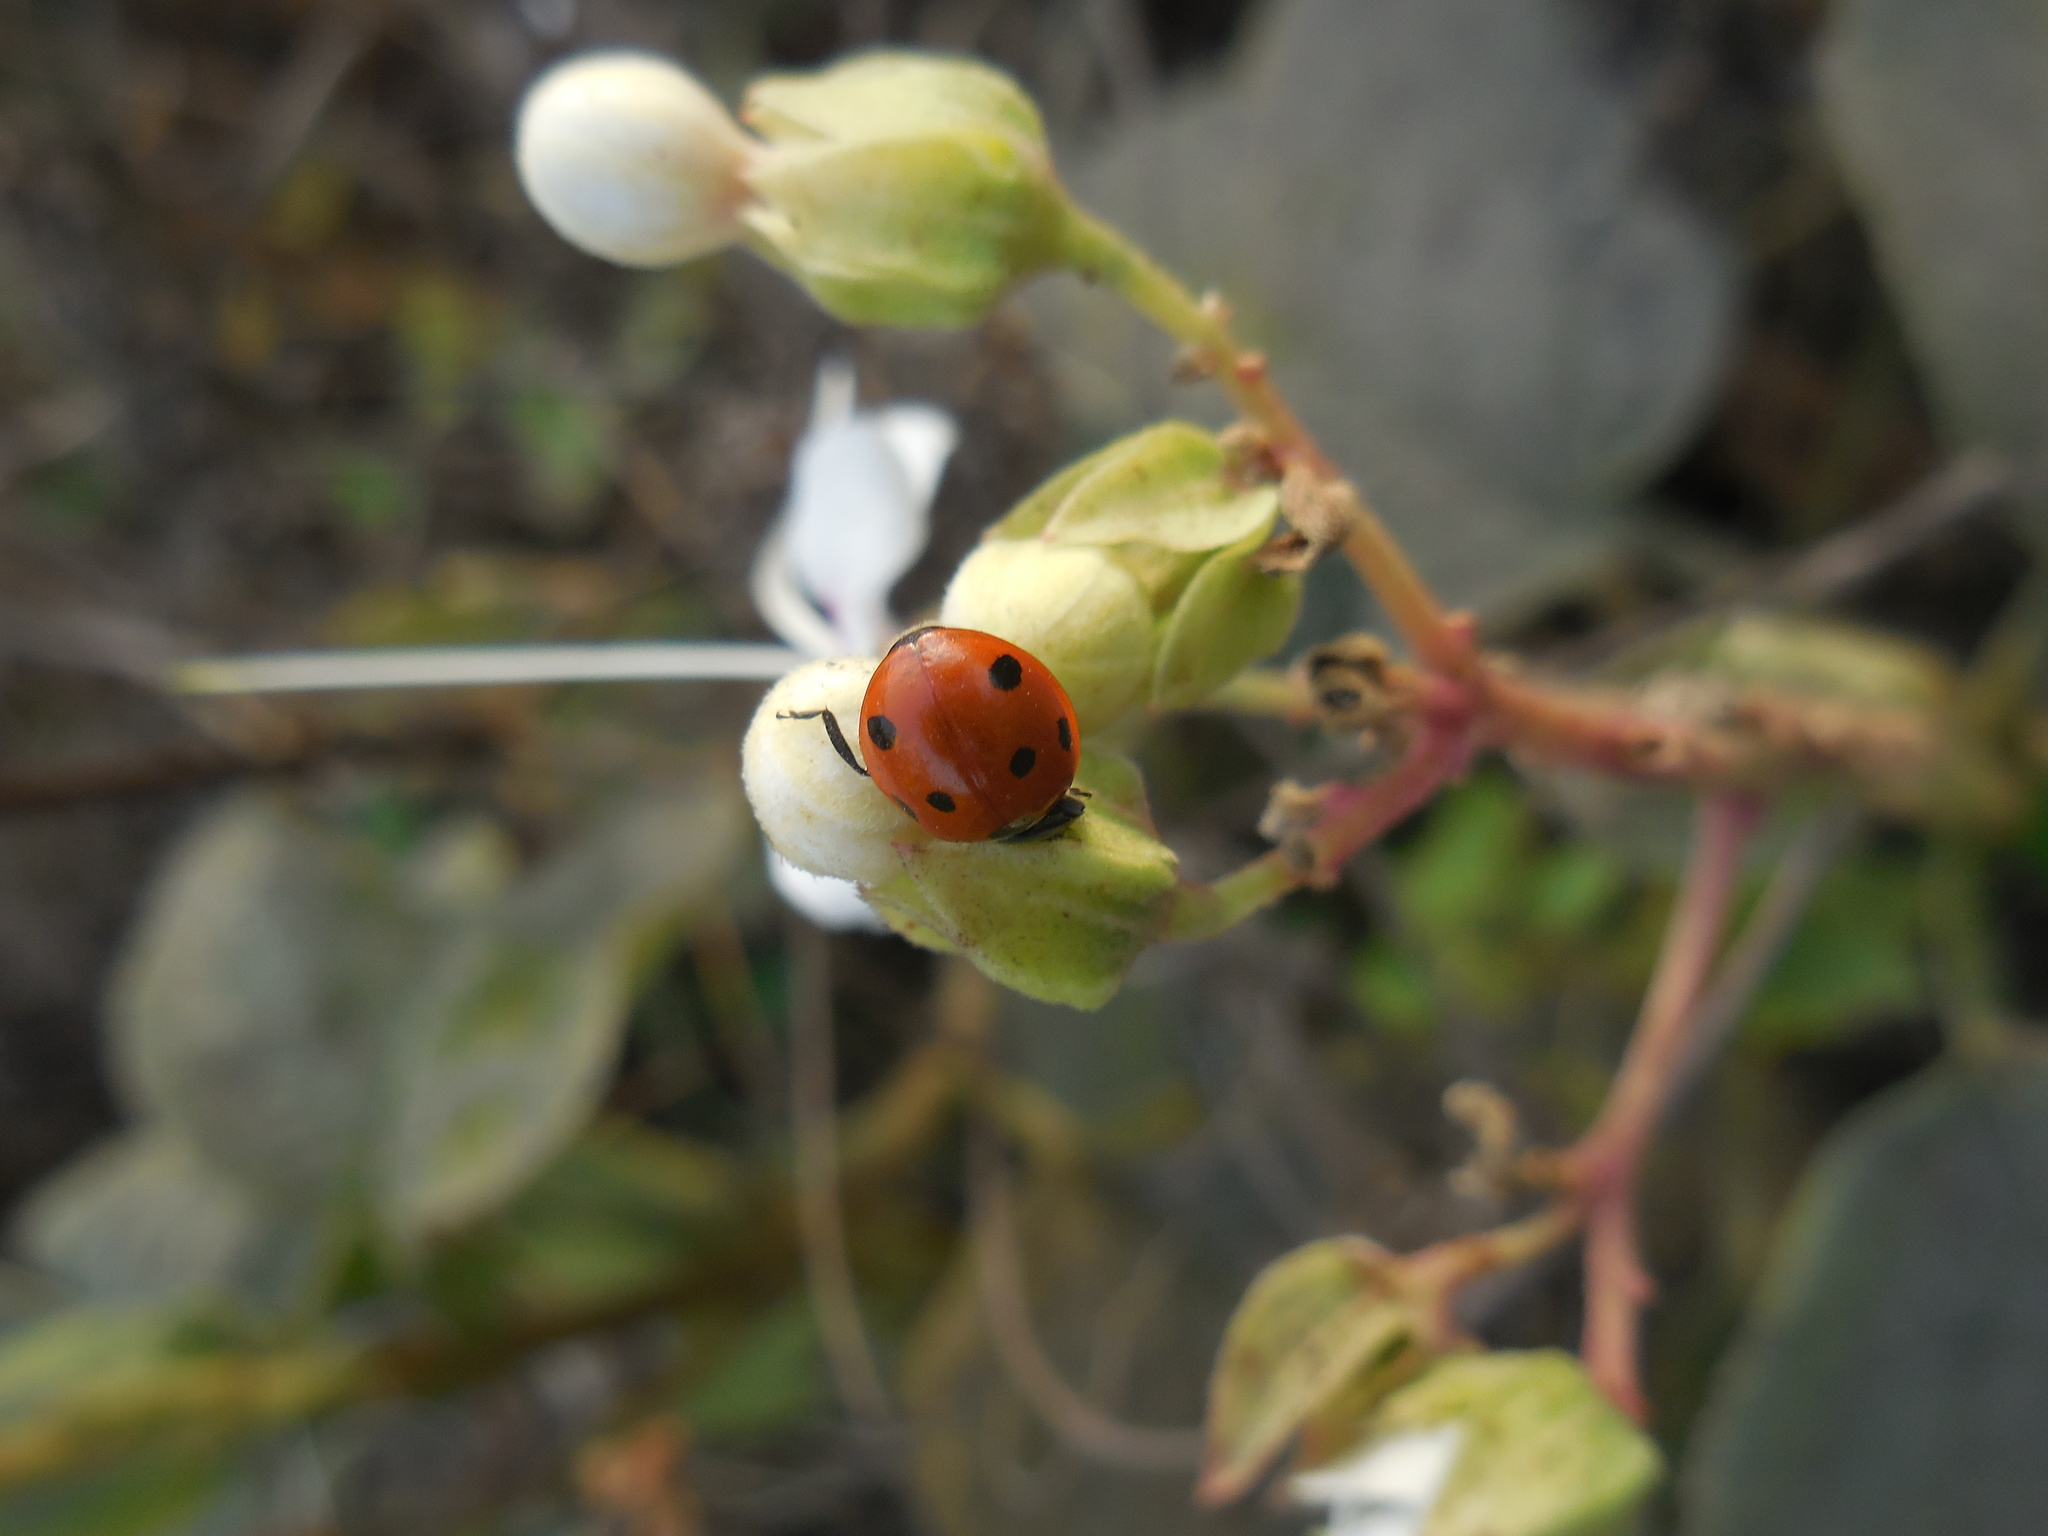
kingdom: Animalia
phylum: Arthropoda
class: Insecta
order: Coleoptera
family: Coccinellidae
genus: Coccinella
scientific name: Coccinella septempunctata
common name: Sevenspotted lady beetle
